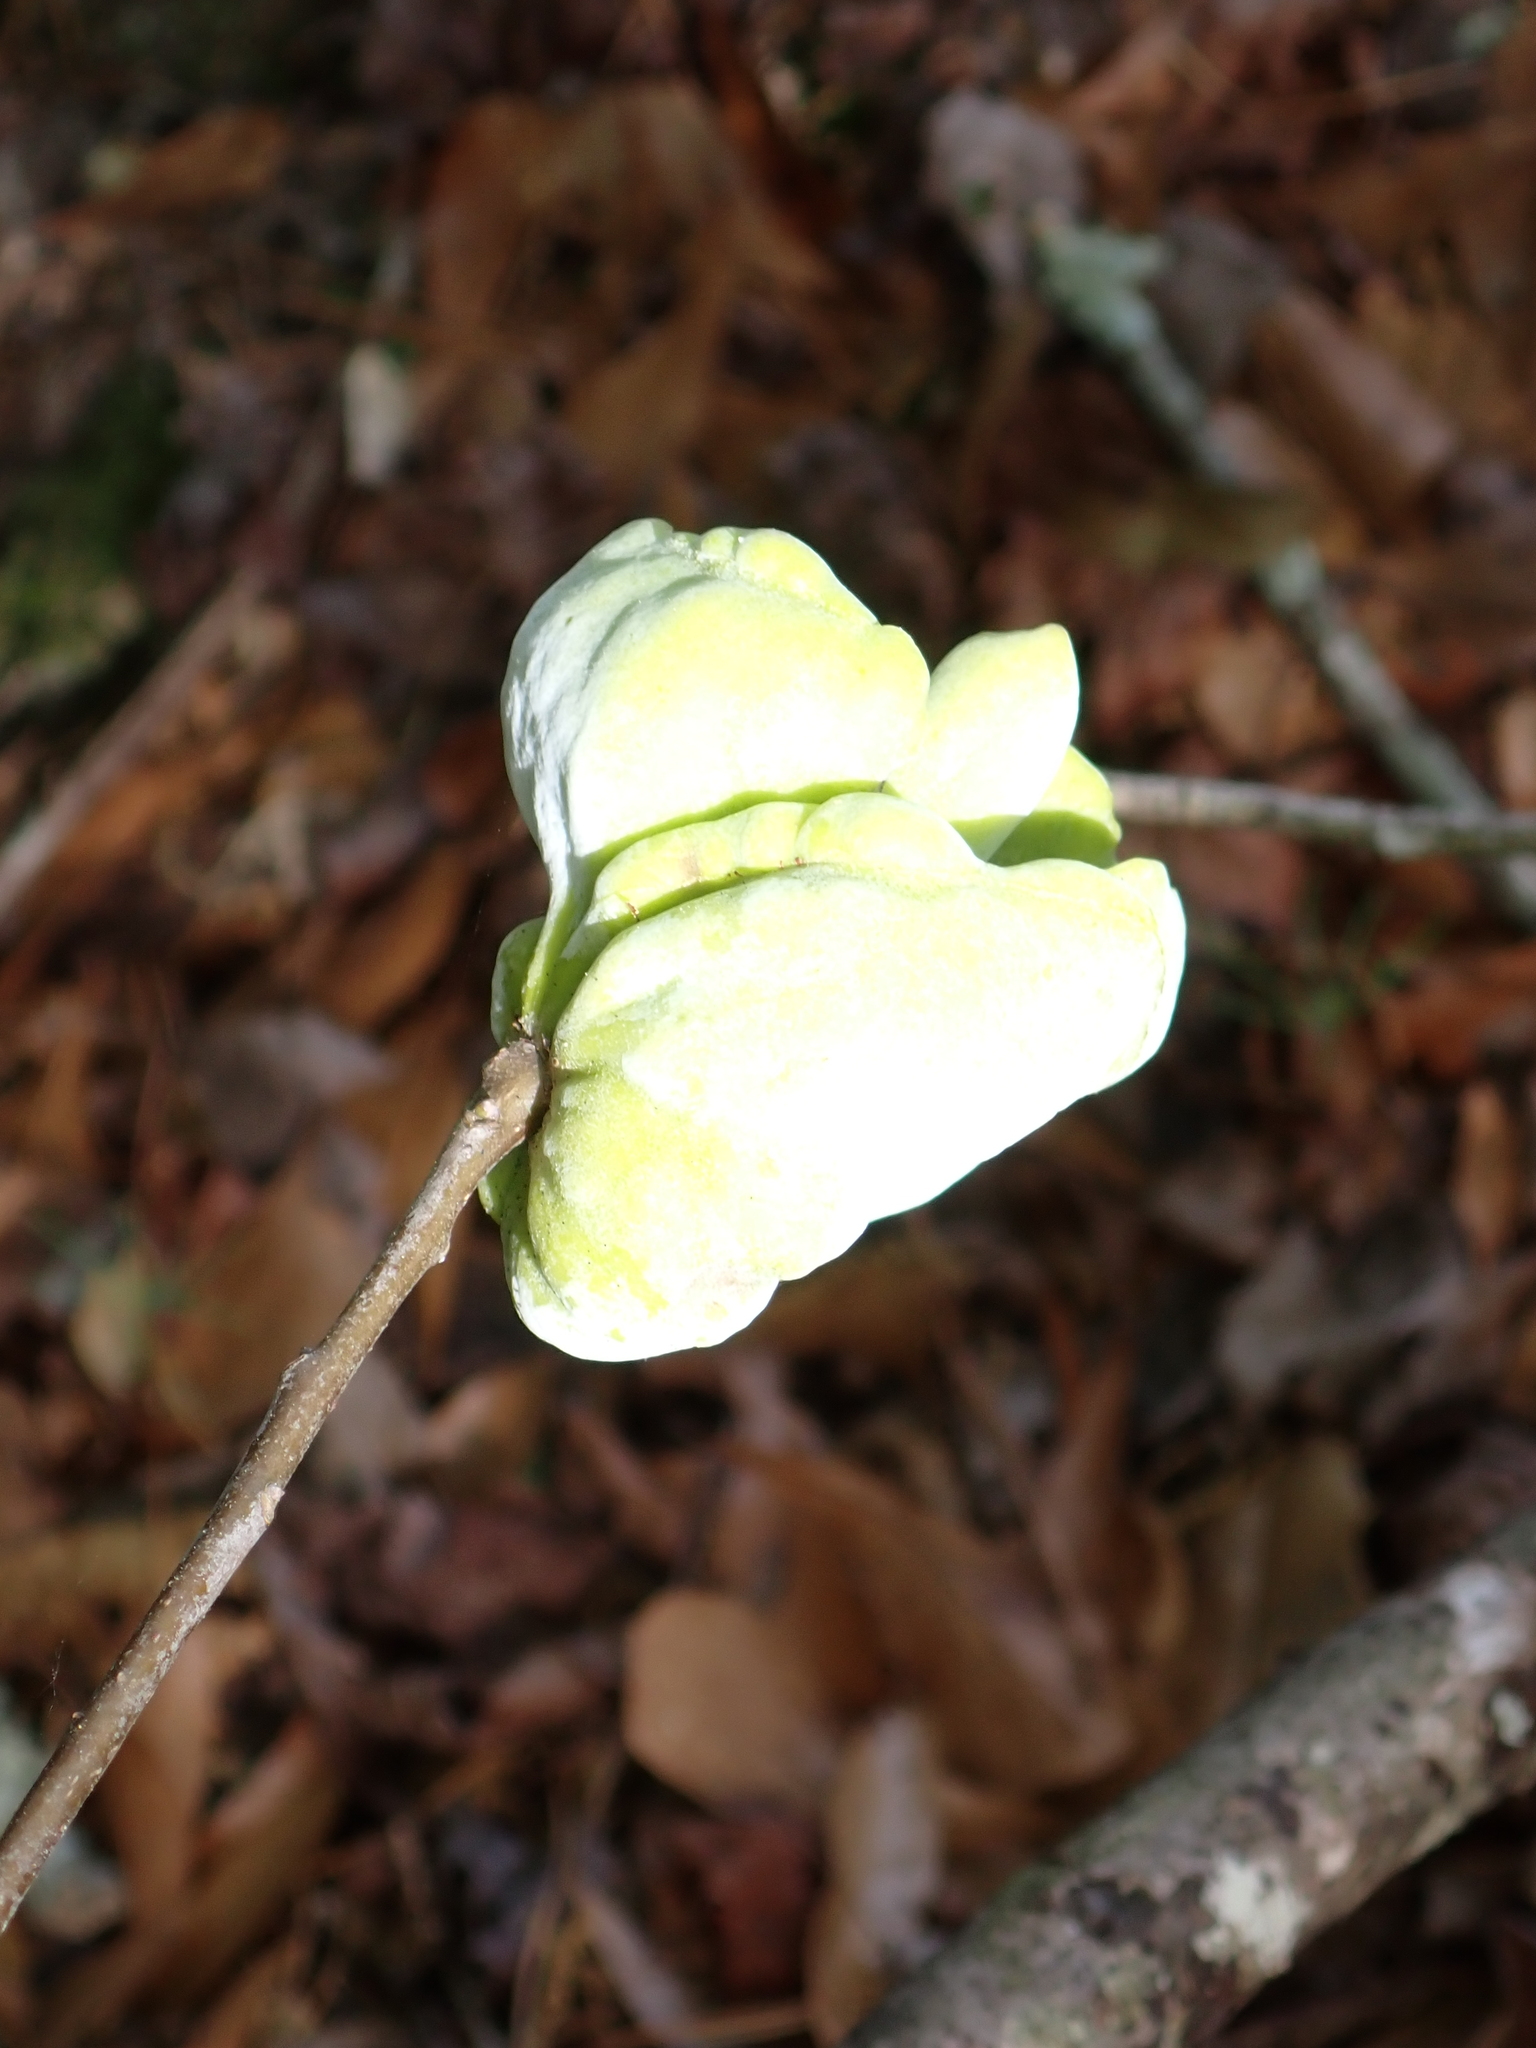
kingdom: Fungi
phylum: Basidiomycota
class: Exobasidiomycetes
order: Exobasidiales
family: Exobasidiaceae
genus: Exobasidium
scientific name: Exobasidium symploci
